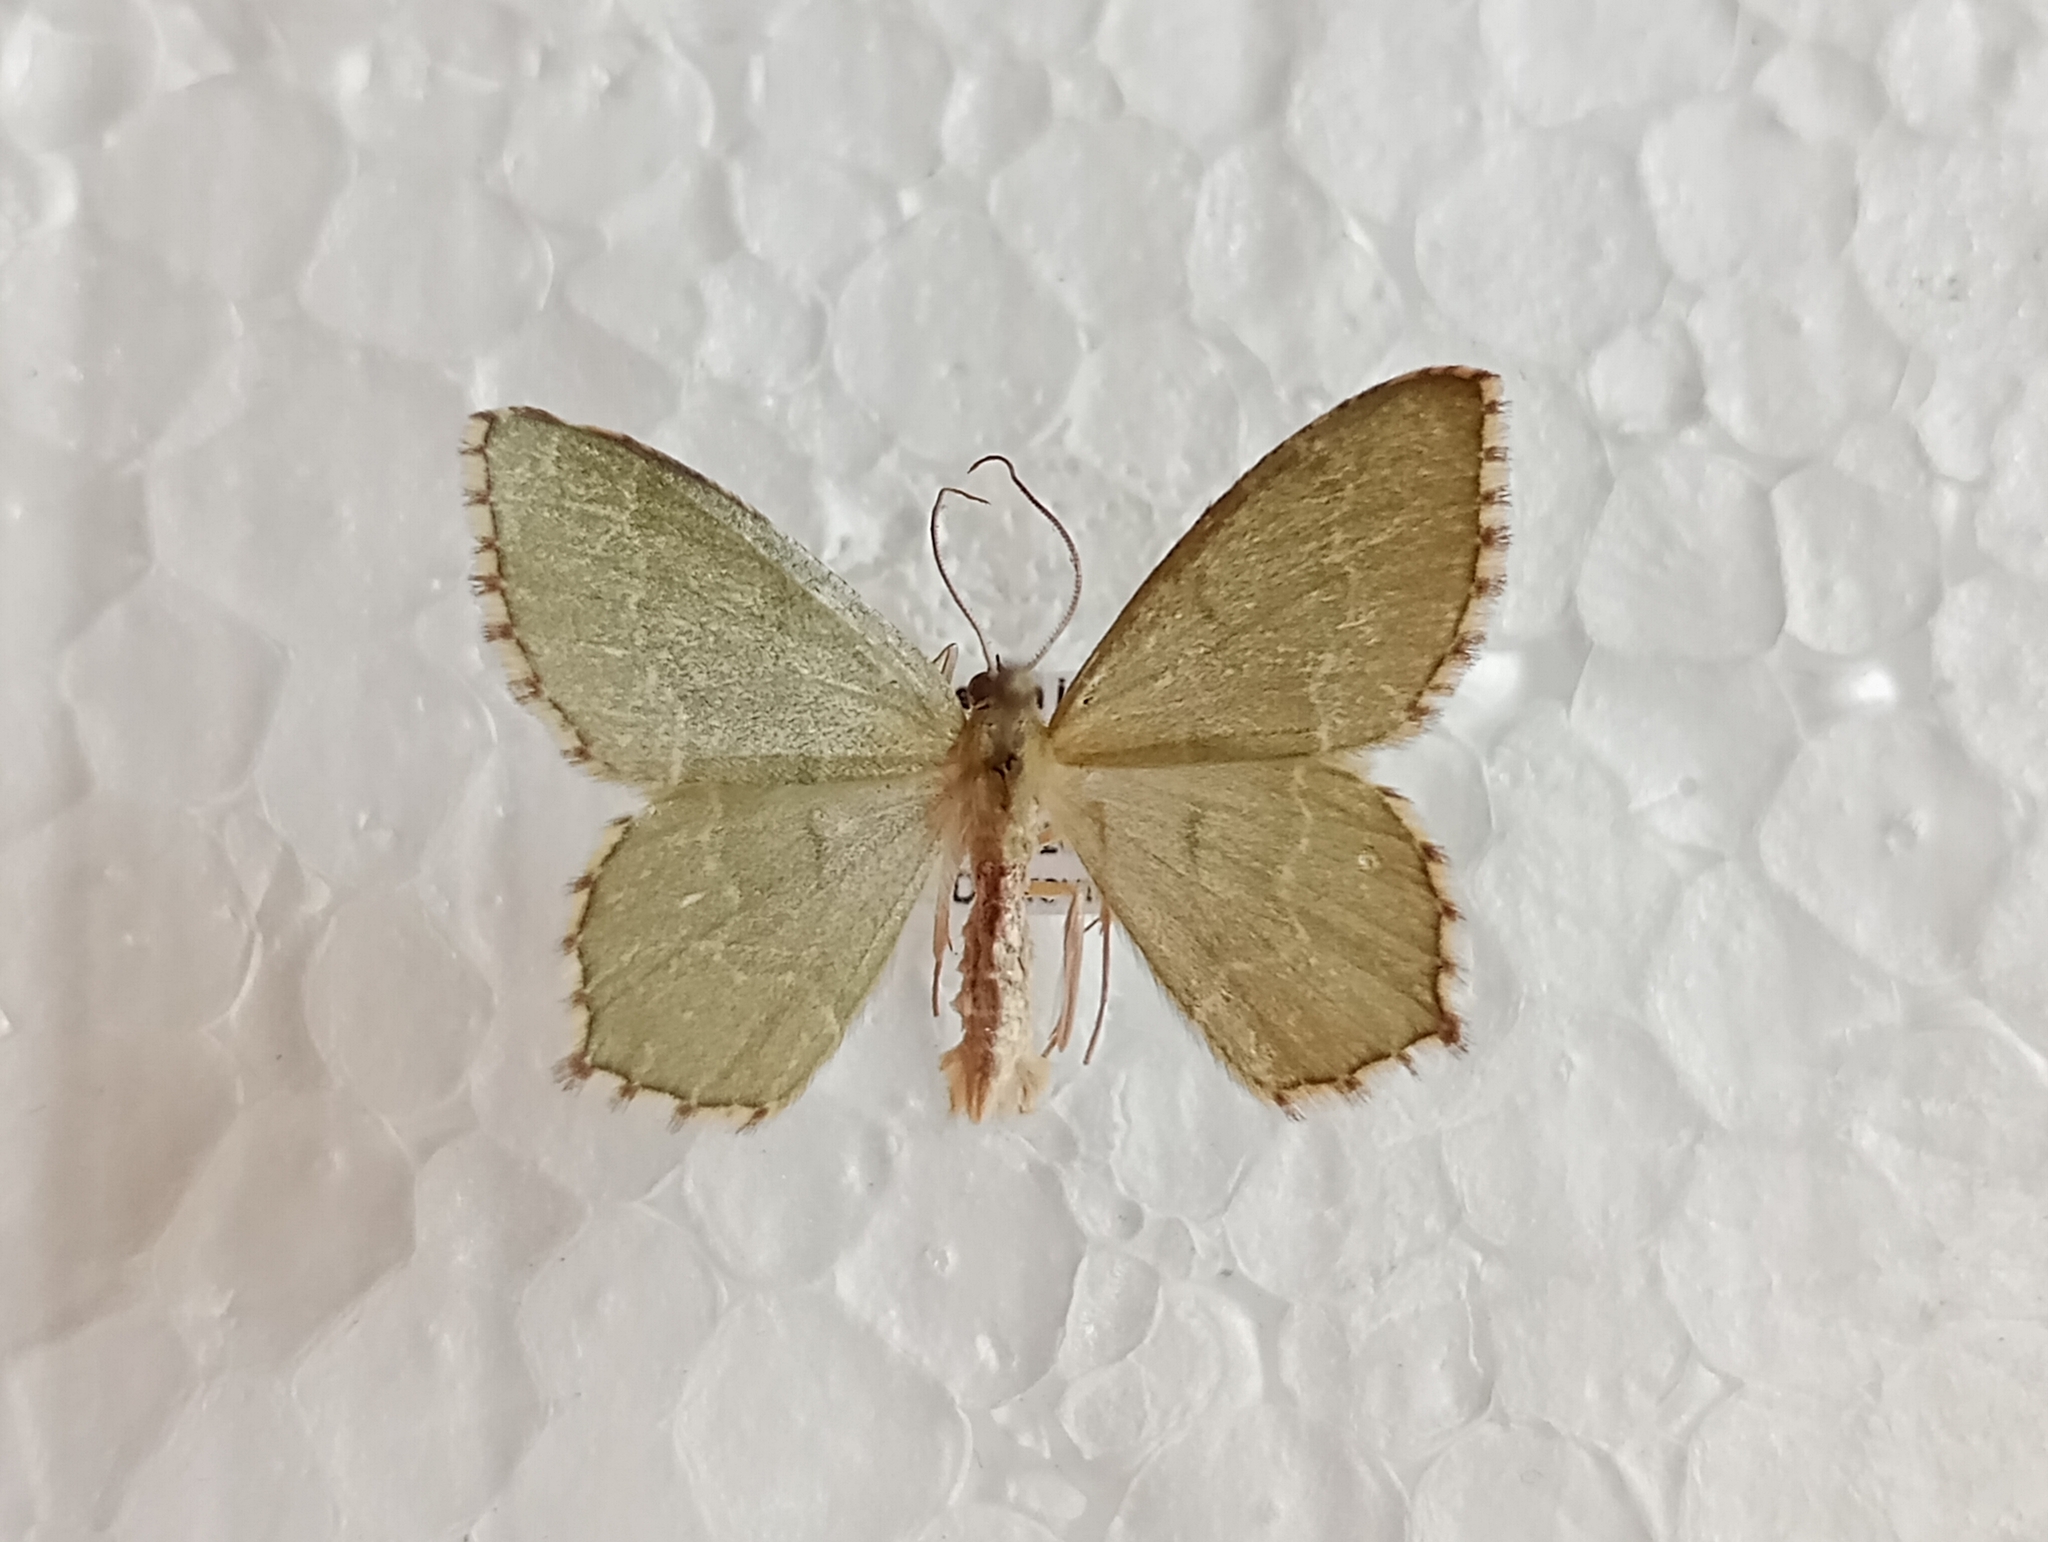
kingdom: Animalia
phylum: Arthropoda
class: Insecta
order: Lepidoptera
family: Geometridae
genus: Hemithea
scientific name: Hemithea aestivaria
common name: Common emerald
